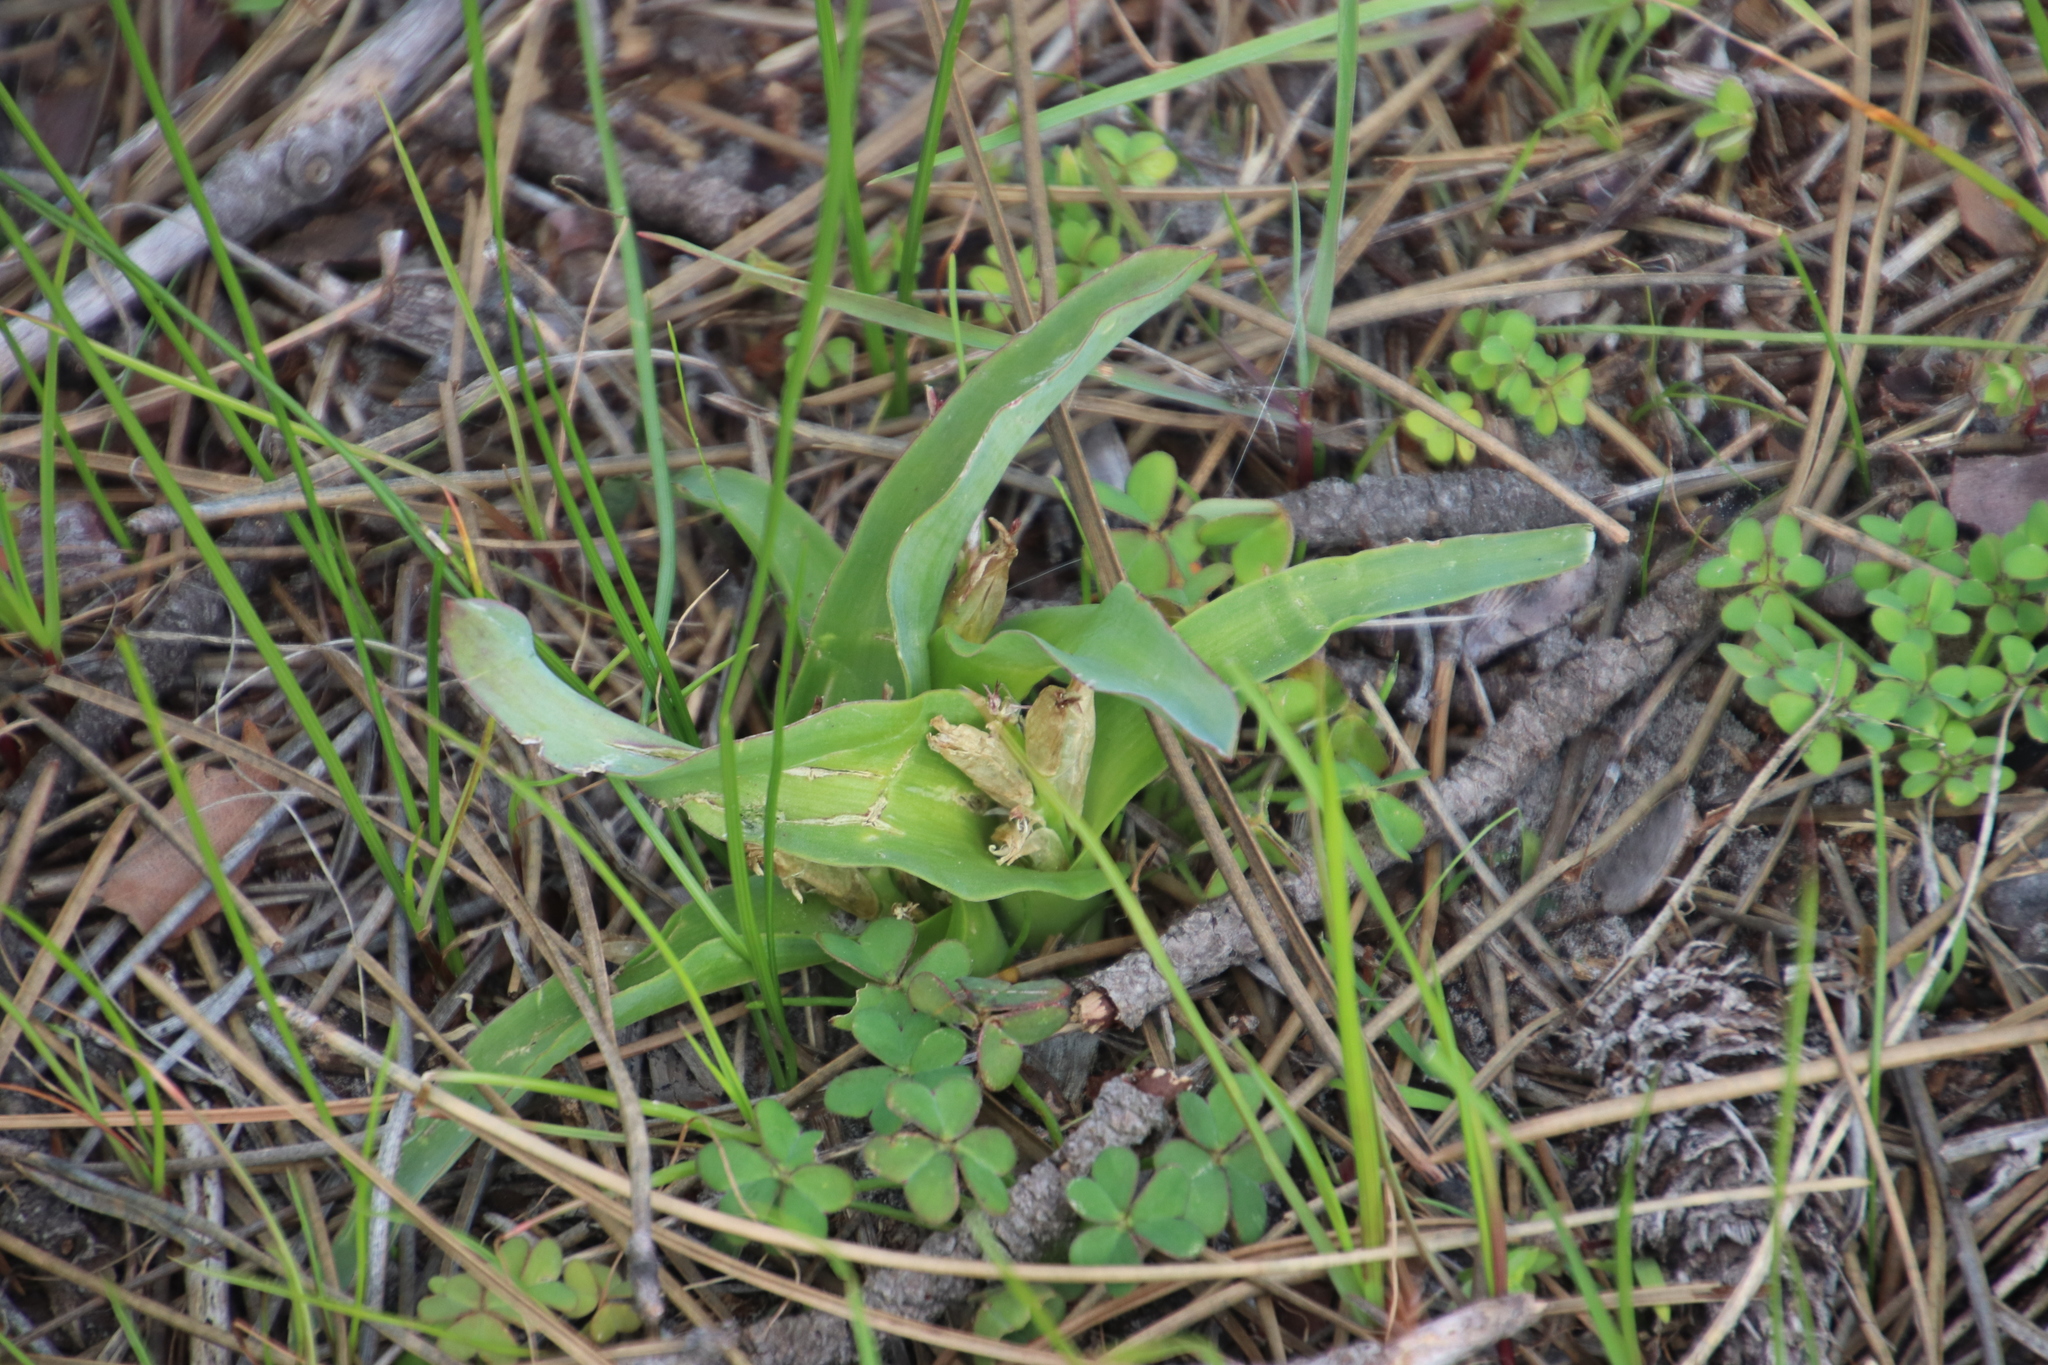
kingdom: Plantae
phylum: Tracheophyta
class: Liliopsida
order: Asparagales
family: Asparagaceae
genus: Lachenalia
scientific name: Lachenalia reflexa
